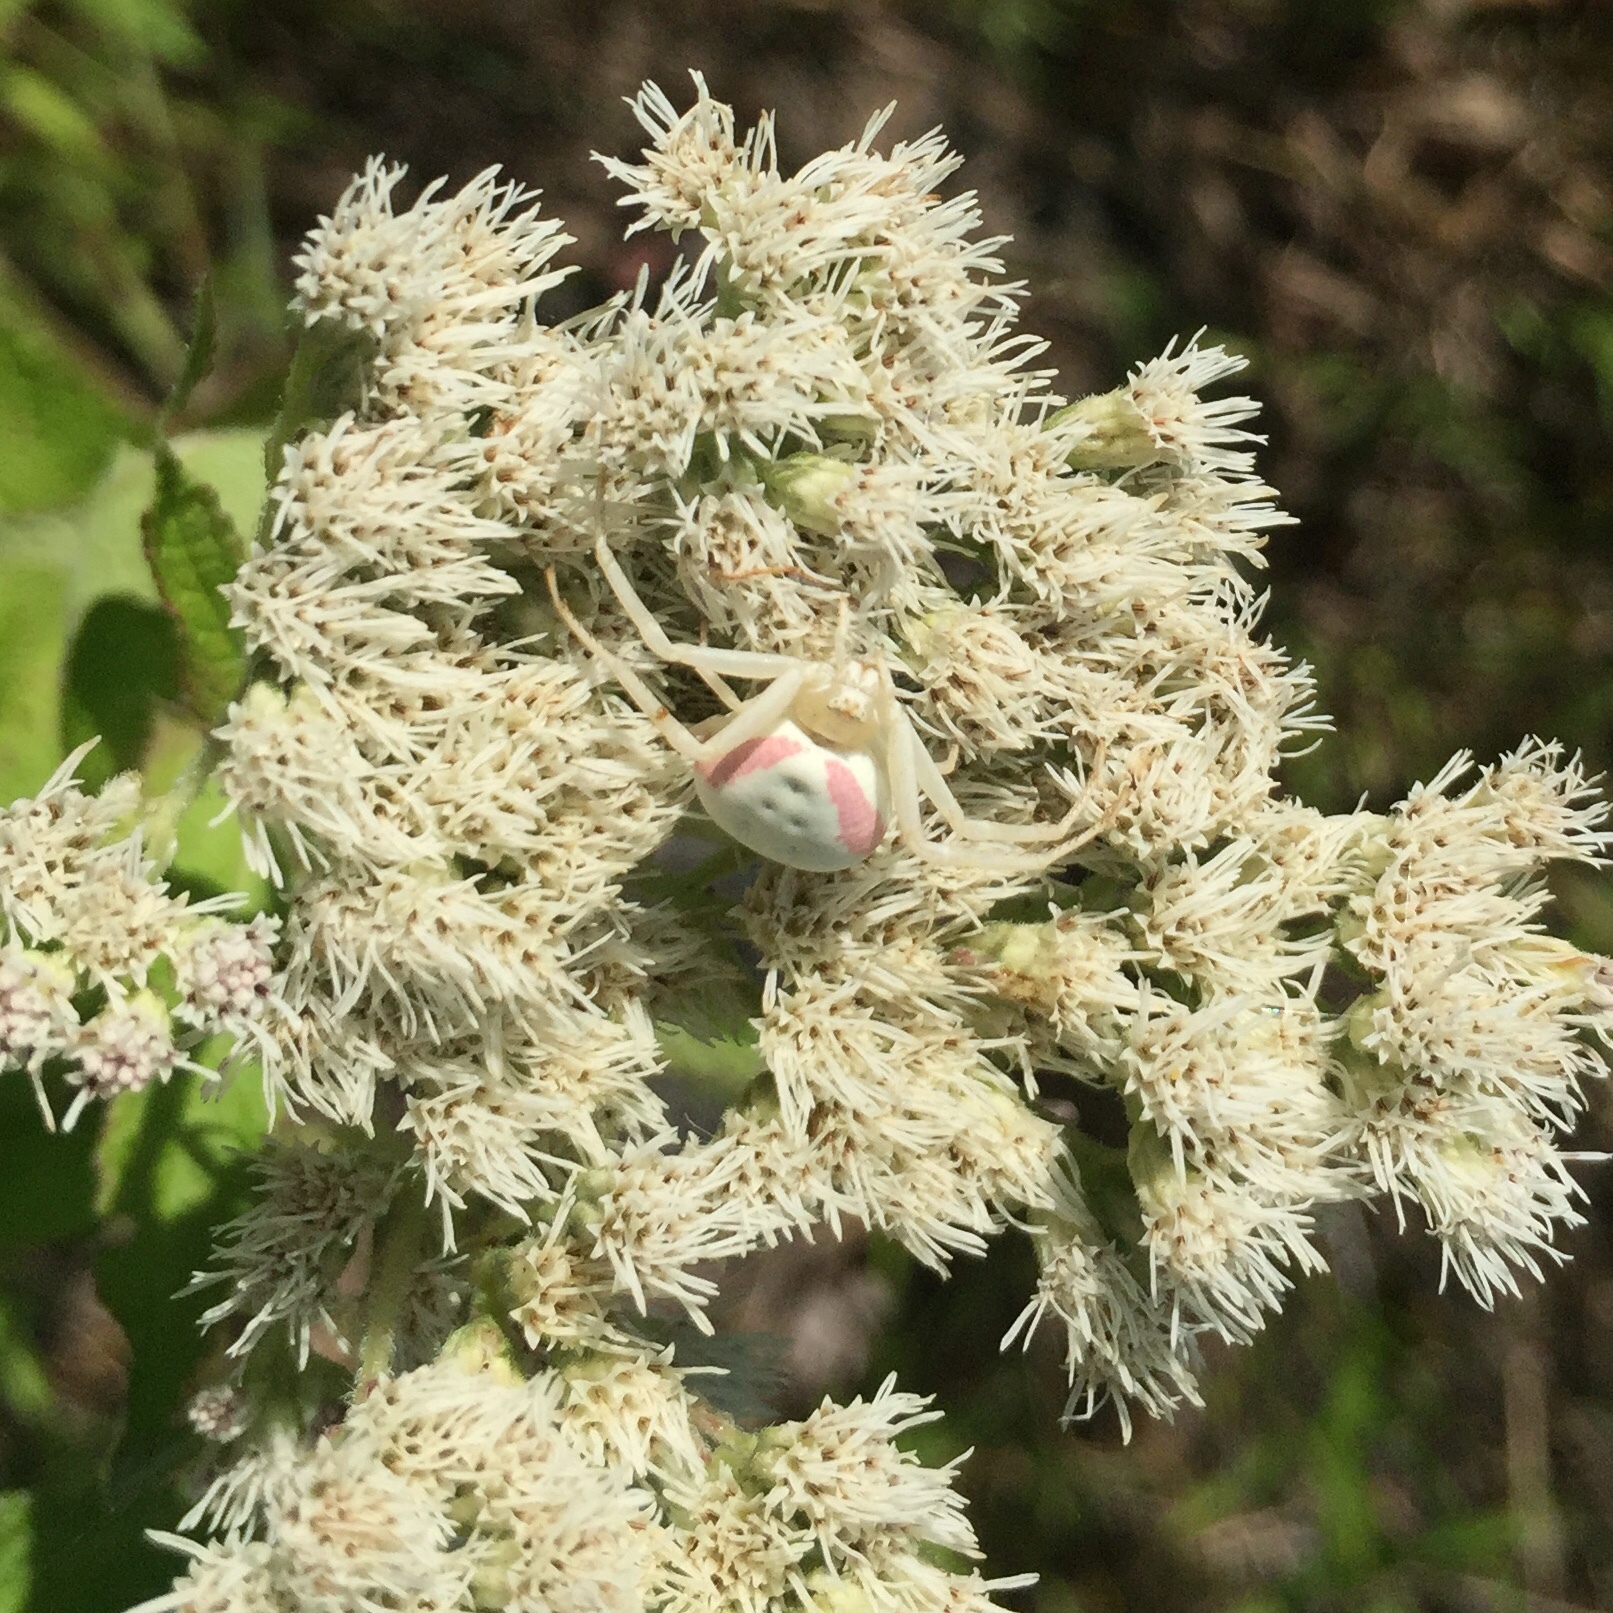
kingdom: Animalia
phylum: Arthropoda
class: Arachnida
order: Araneae
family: Thomisidae
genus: Misumena
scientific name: Misumena vatia
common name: Goldenrod crab spider
